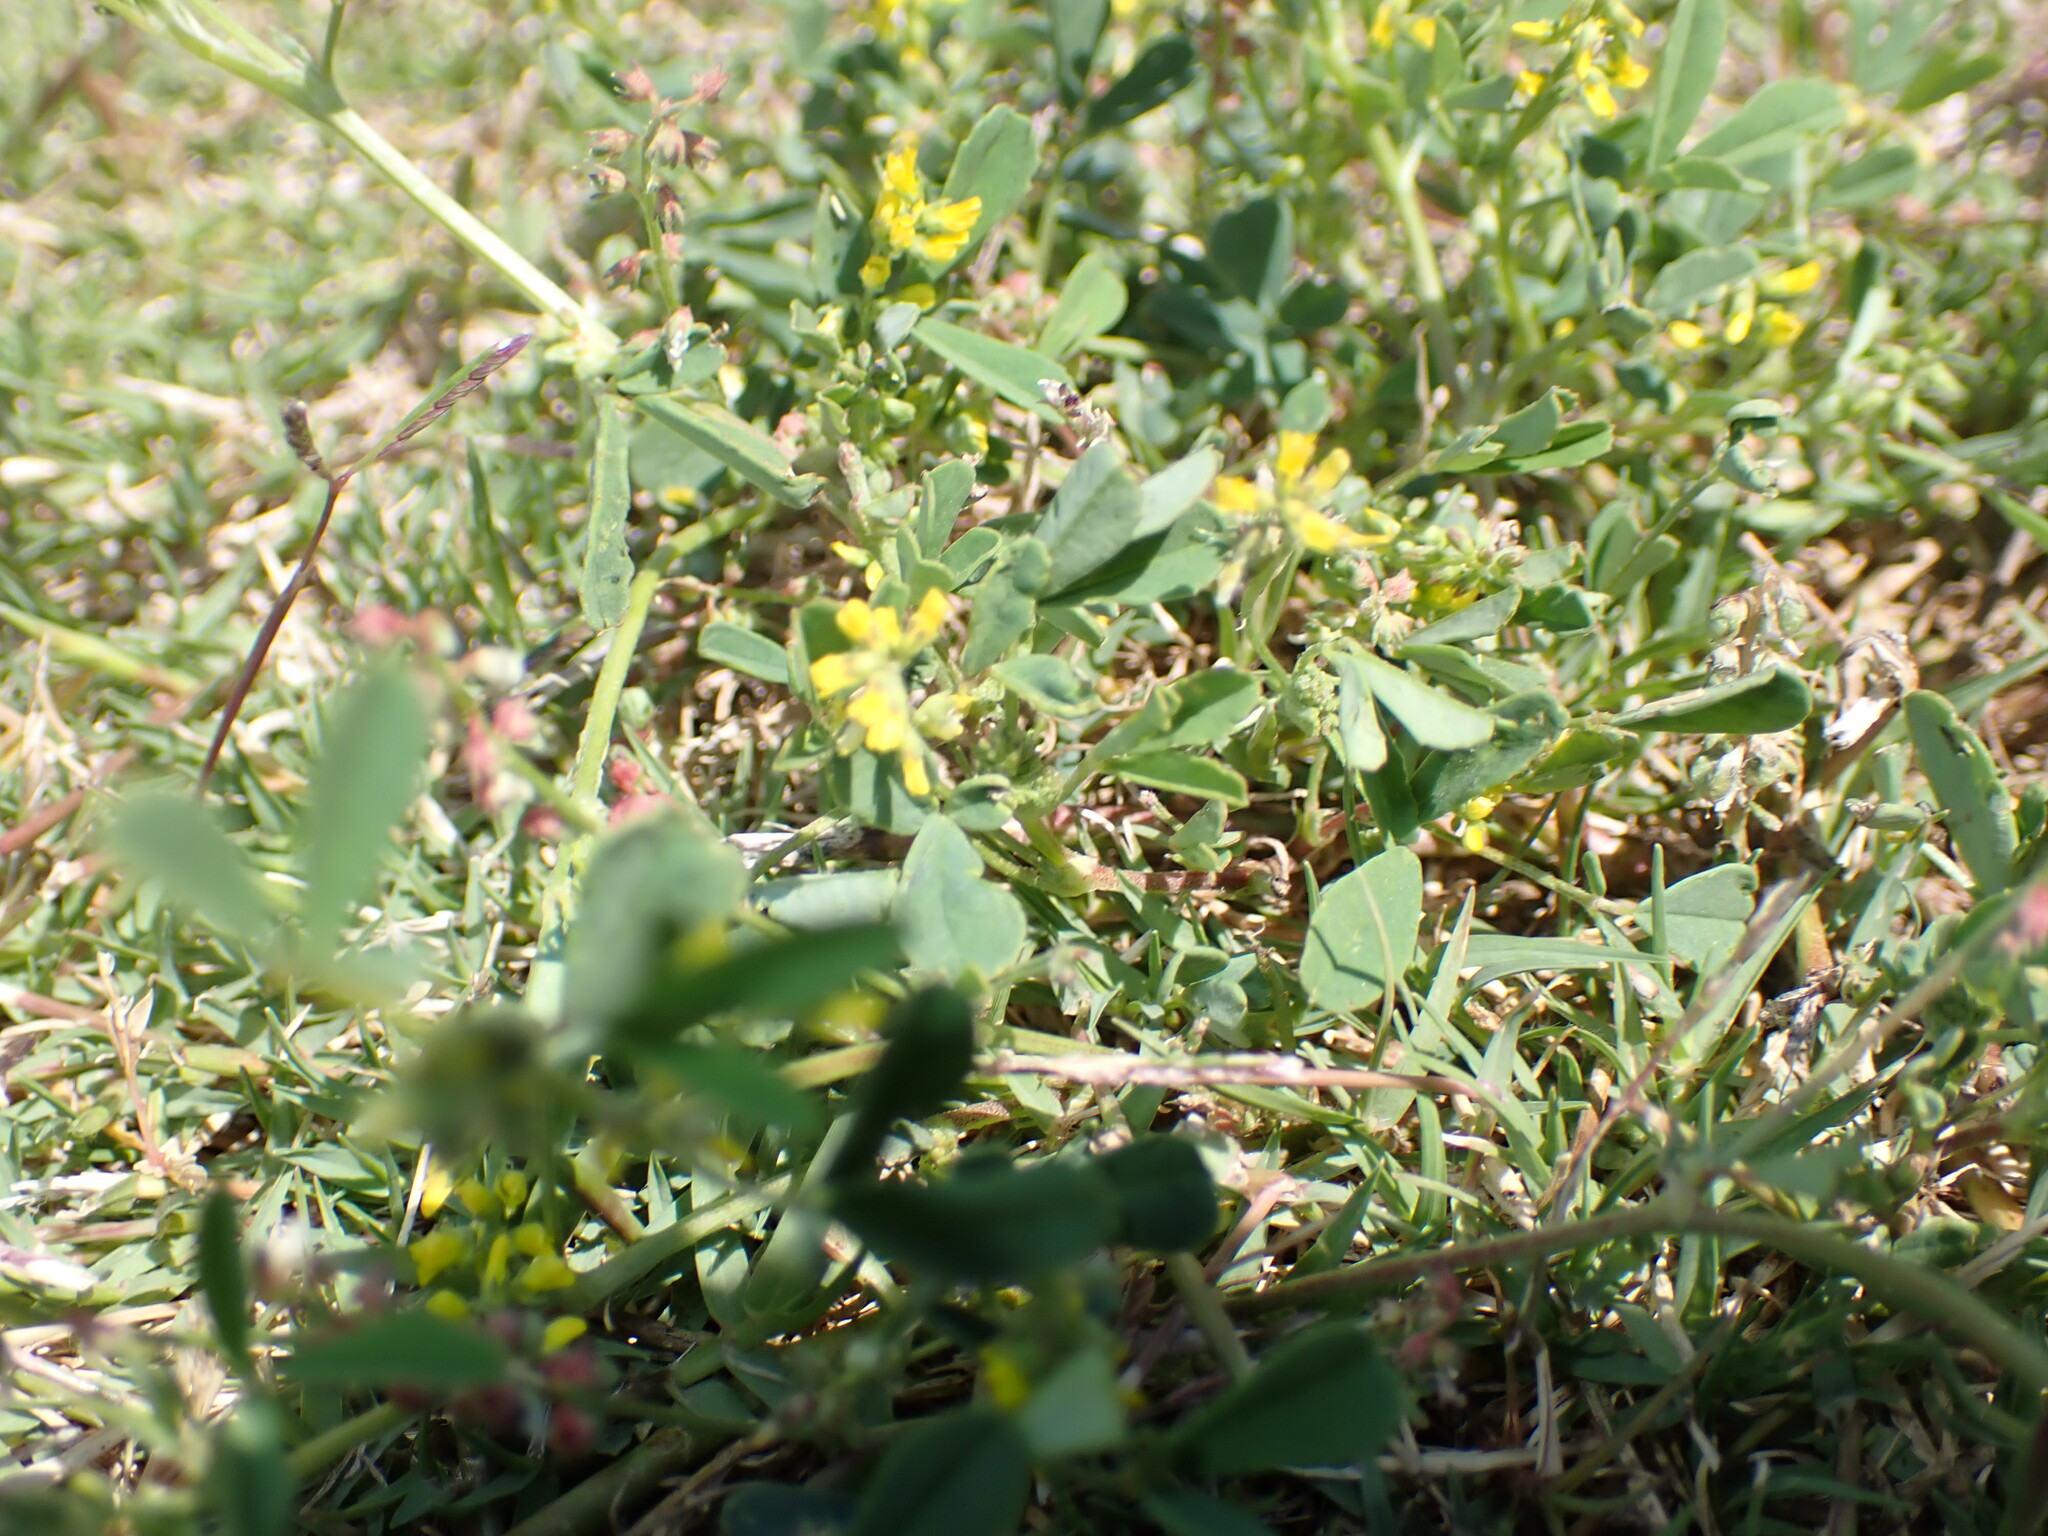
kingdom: Plantae
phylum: Tracheophyta
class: Magnoliopsida
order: Fabales
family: Fabaceae
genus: Melilotus
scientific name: Melilotus indicus
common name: Small melilot
